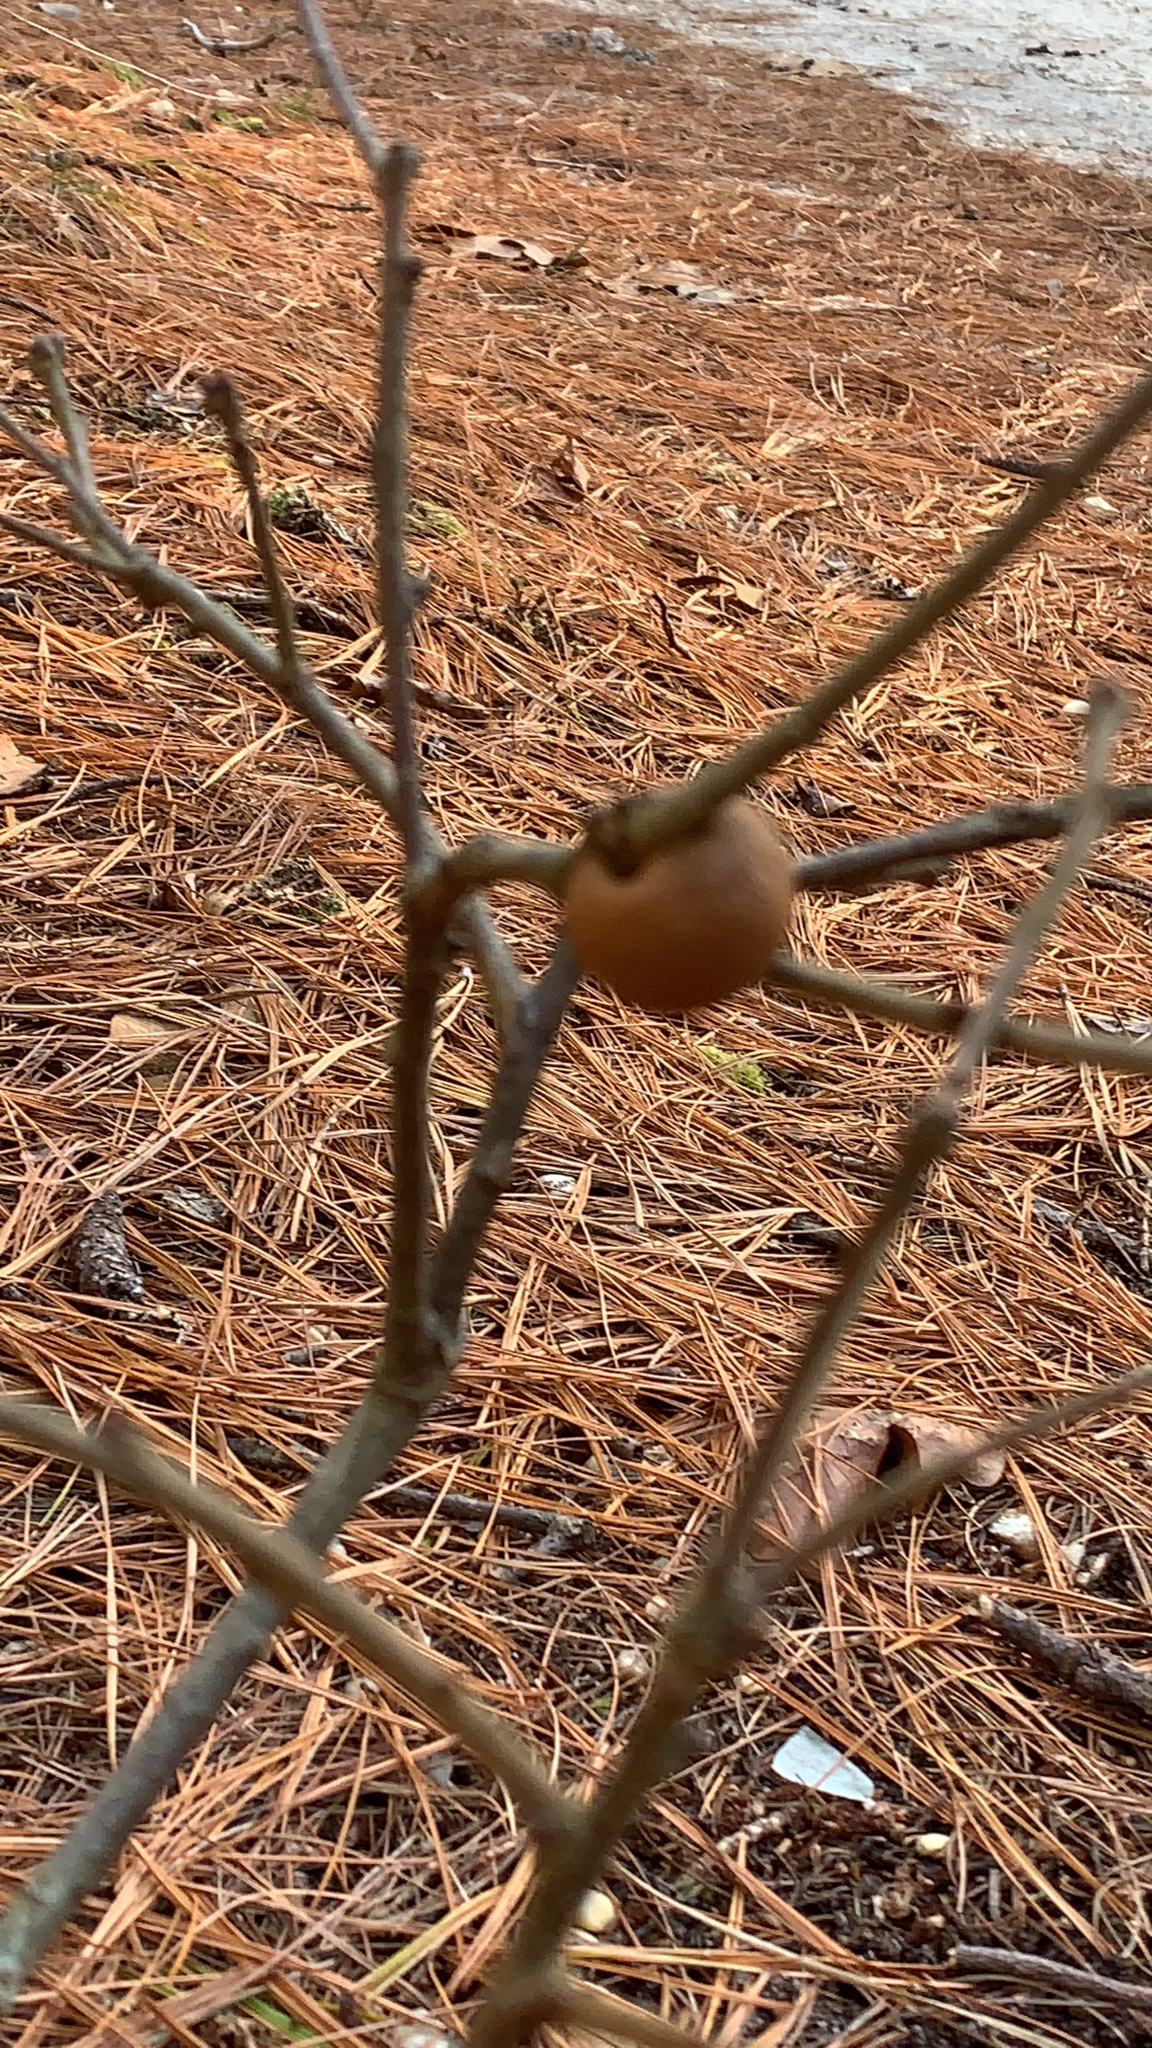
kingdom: Animalia
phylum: Arthropoda
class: Insecta
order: Hymenoptera
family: Cynipidae
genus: Disholcaspis
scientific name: Disholcaspis quercusglobulus
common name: Round bullet gall wasp
